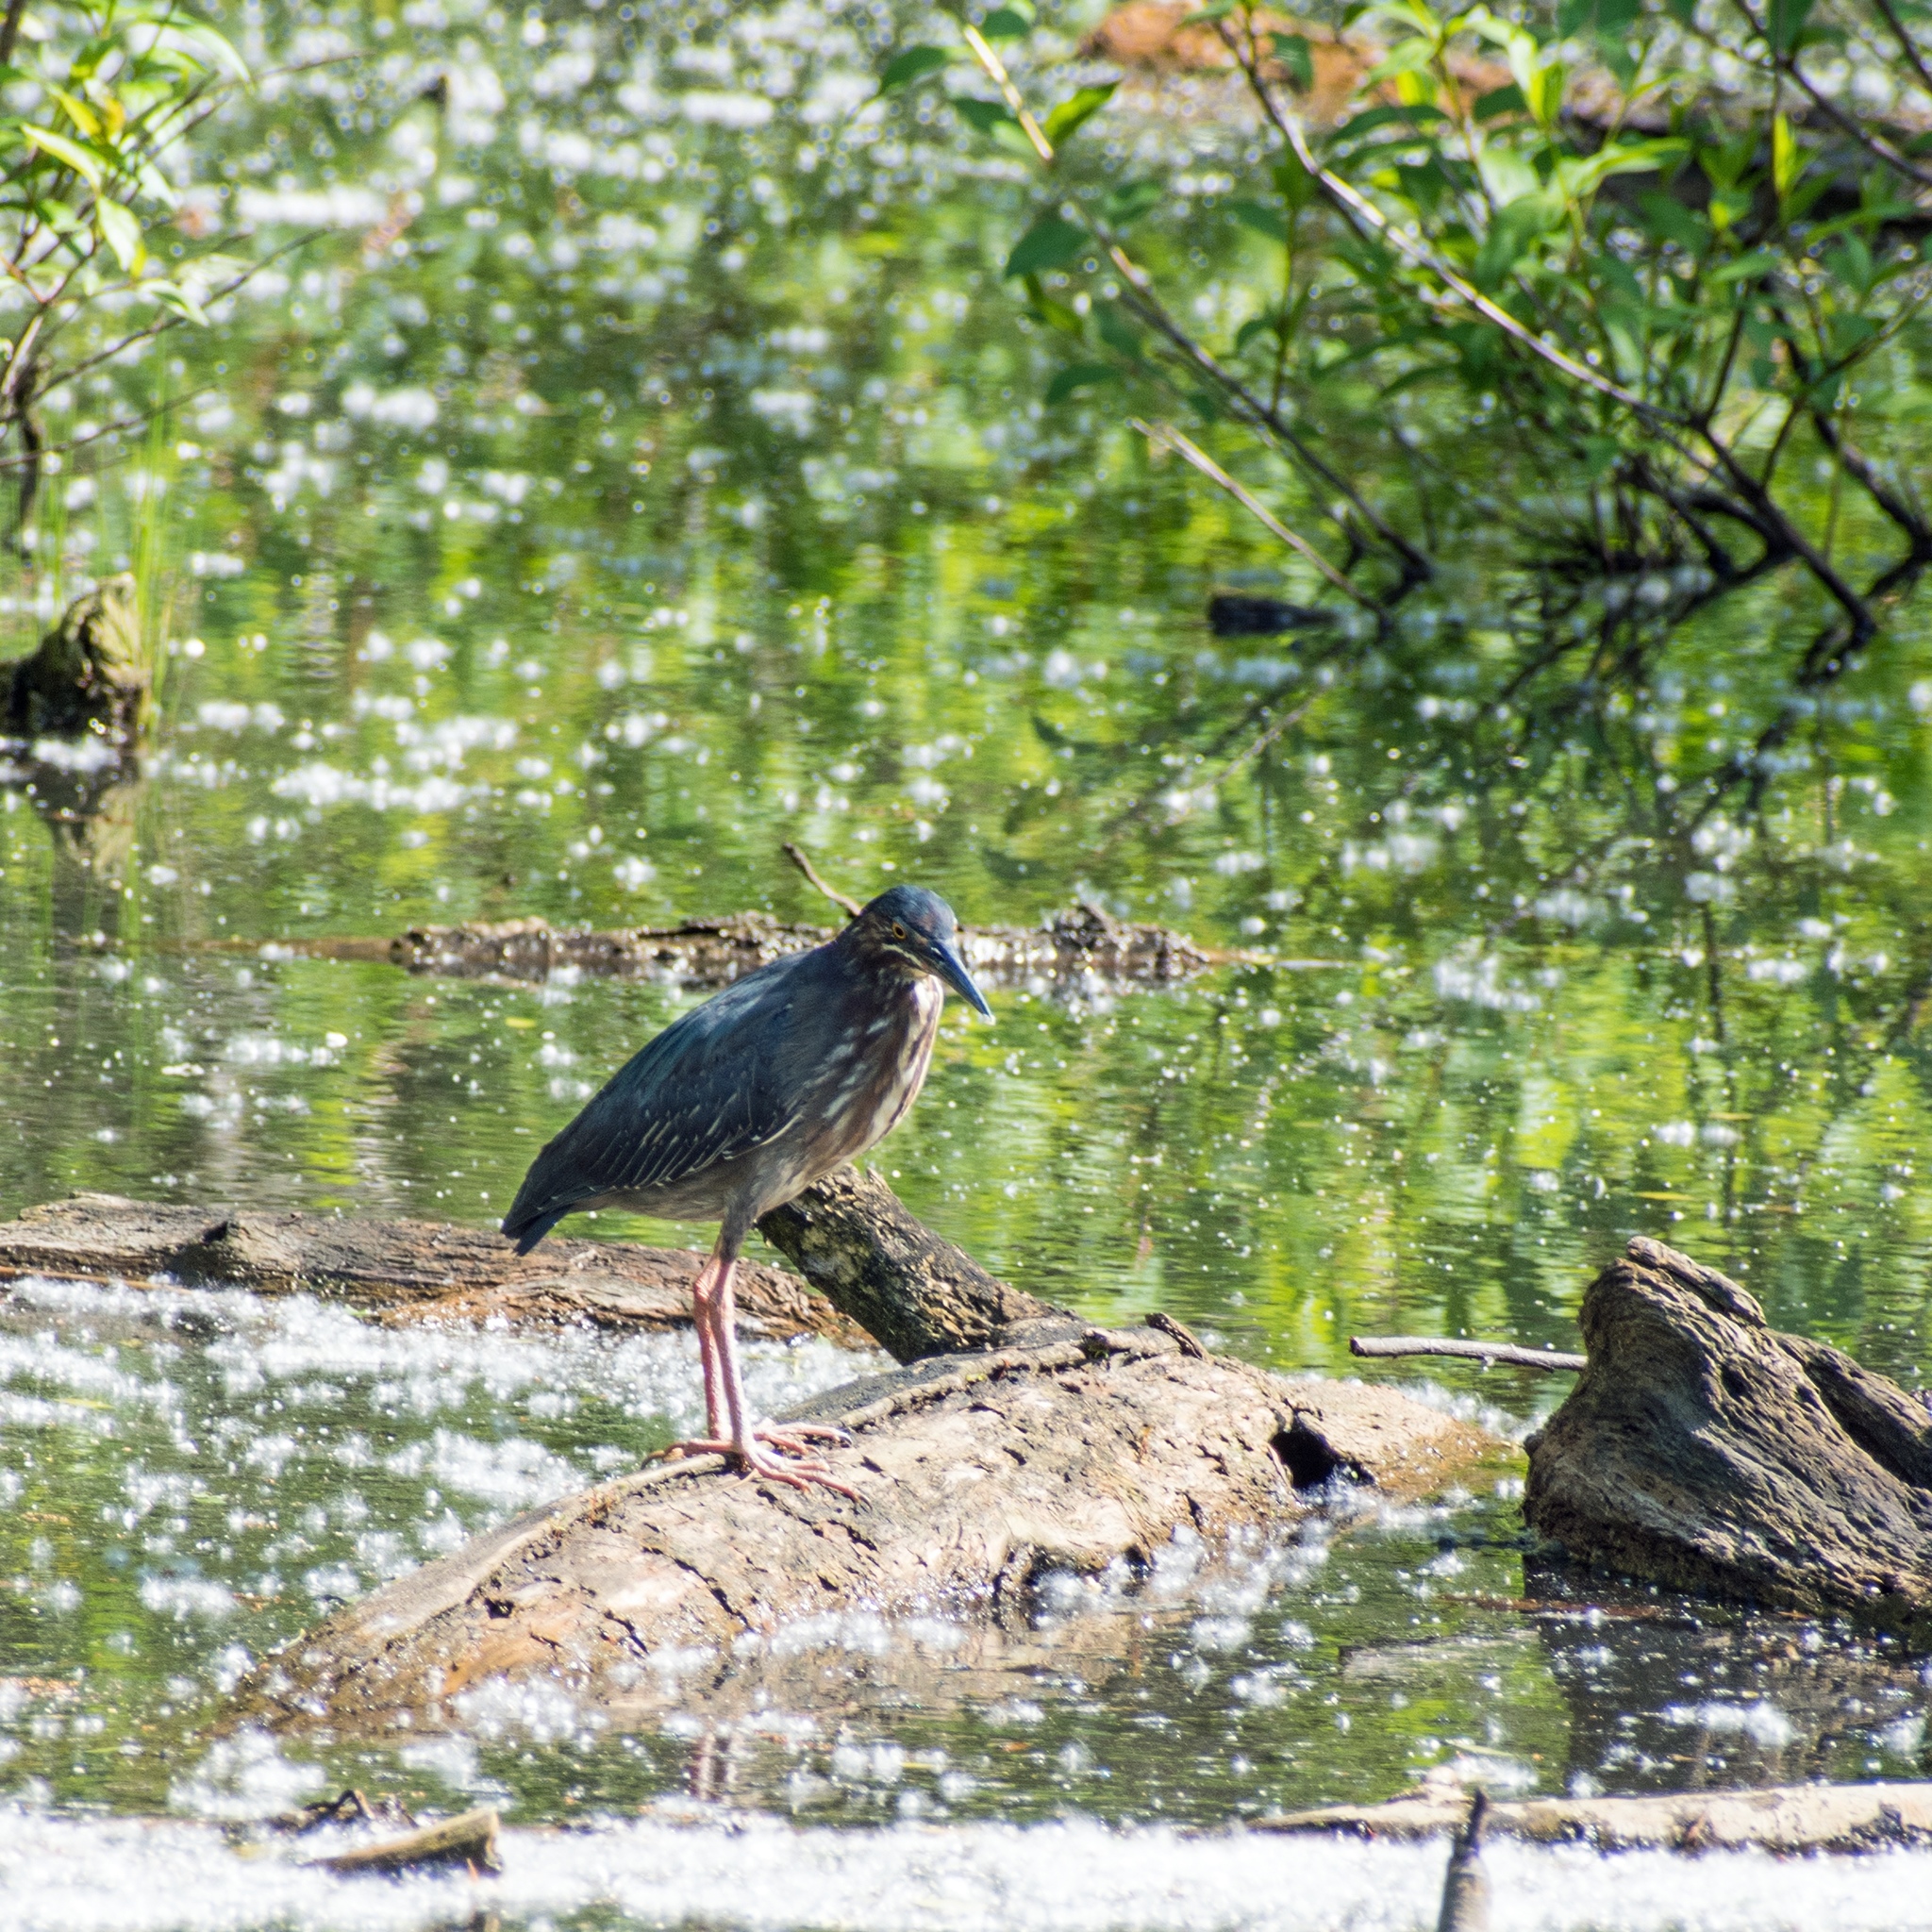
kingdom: Animalia
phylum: Chordata
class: Aves
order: Pelecaniformes
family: Ardeidae
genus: Butorides
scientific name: Butorides virescens
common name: Green heron
